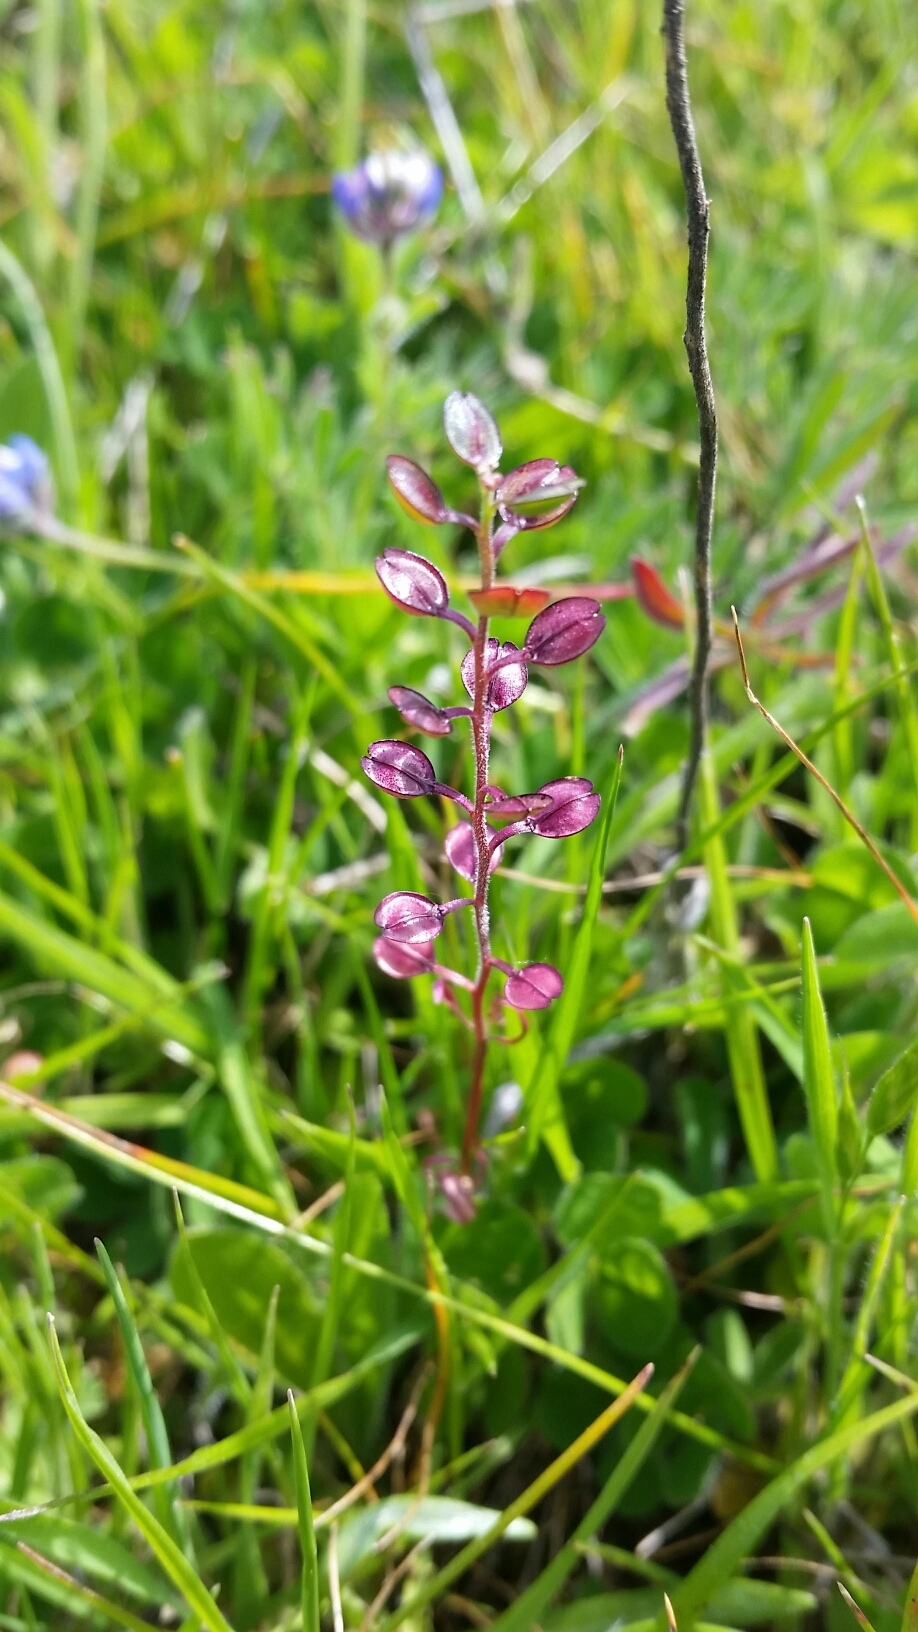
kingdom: Plantae
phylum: Tracheophyta
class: Magnoliopsida
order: Brassicales
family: Brassicaceae
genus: Lepidium
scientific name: Lepidium nitidum
